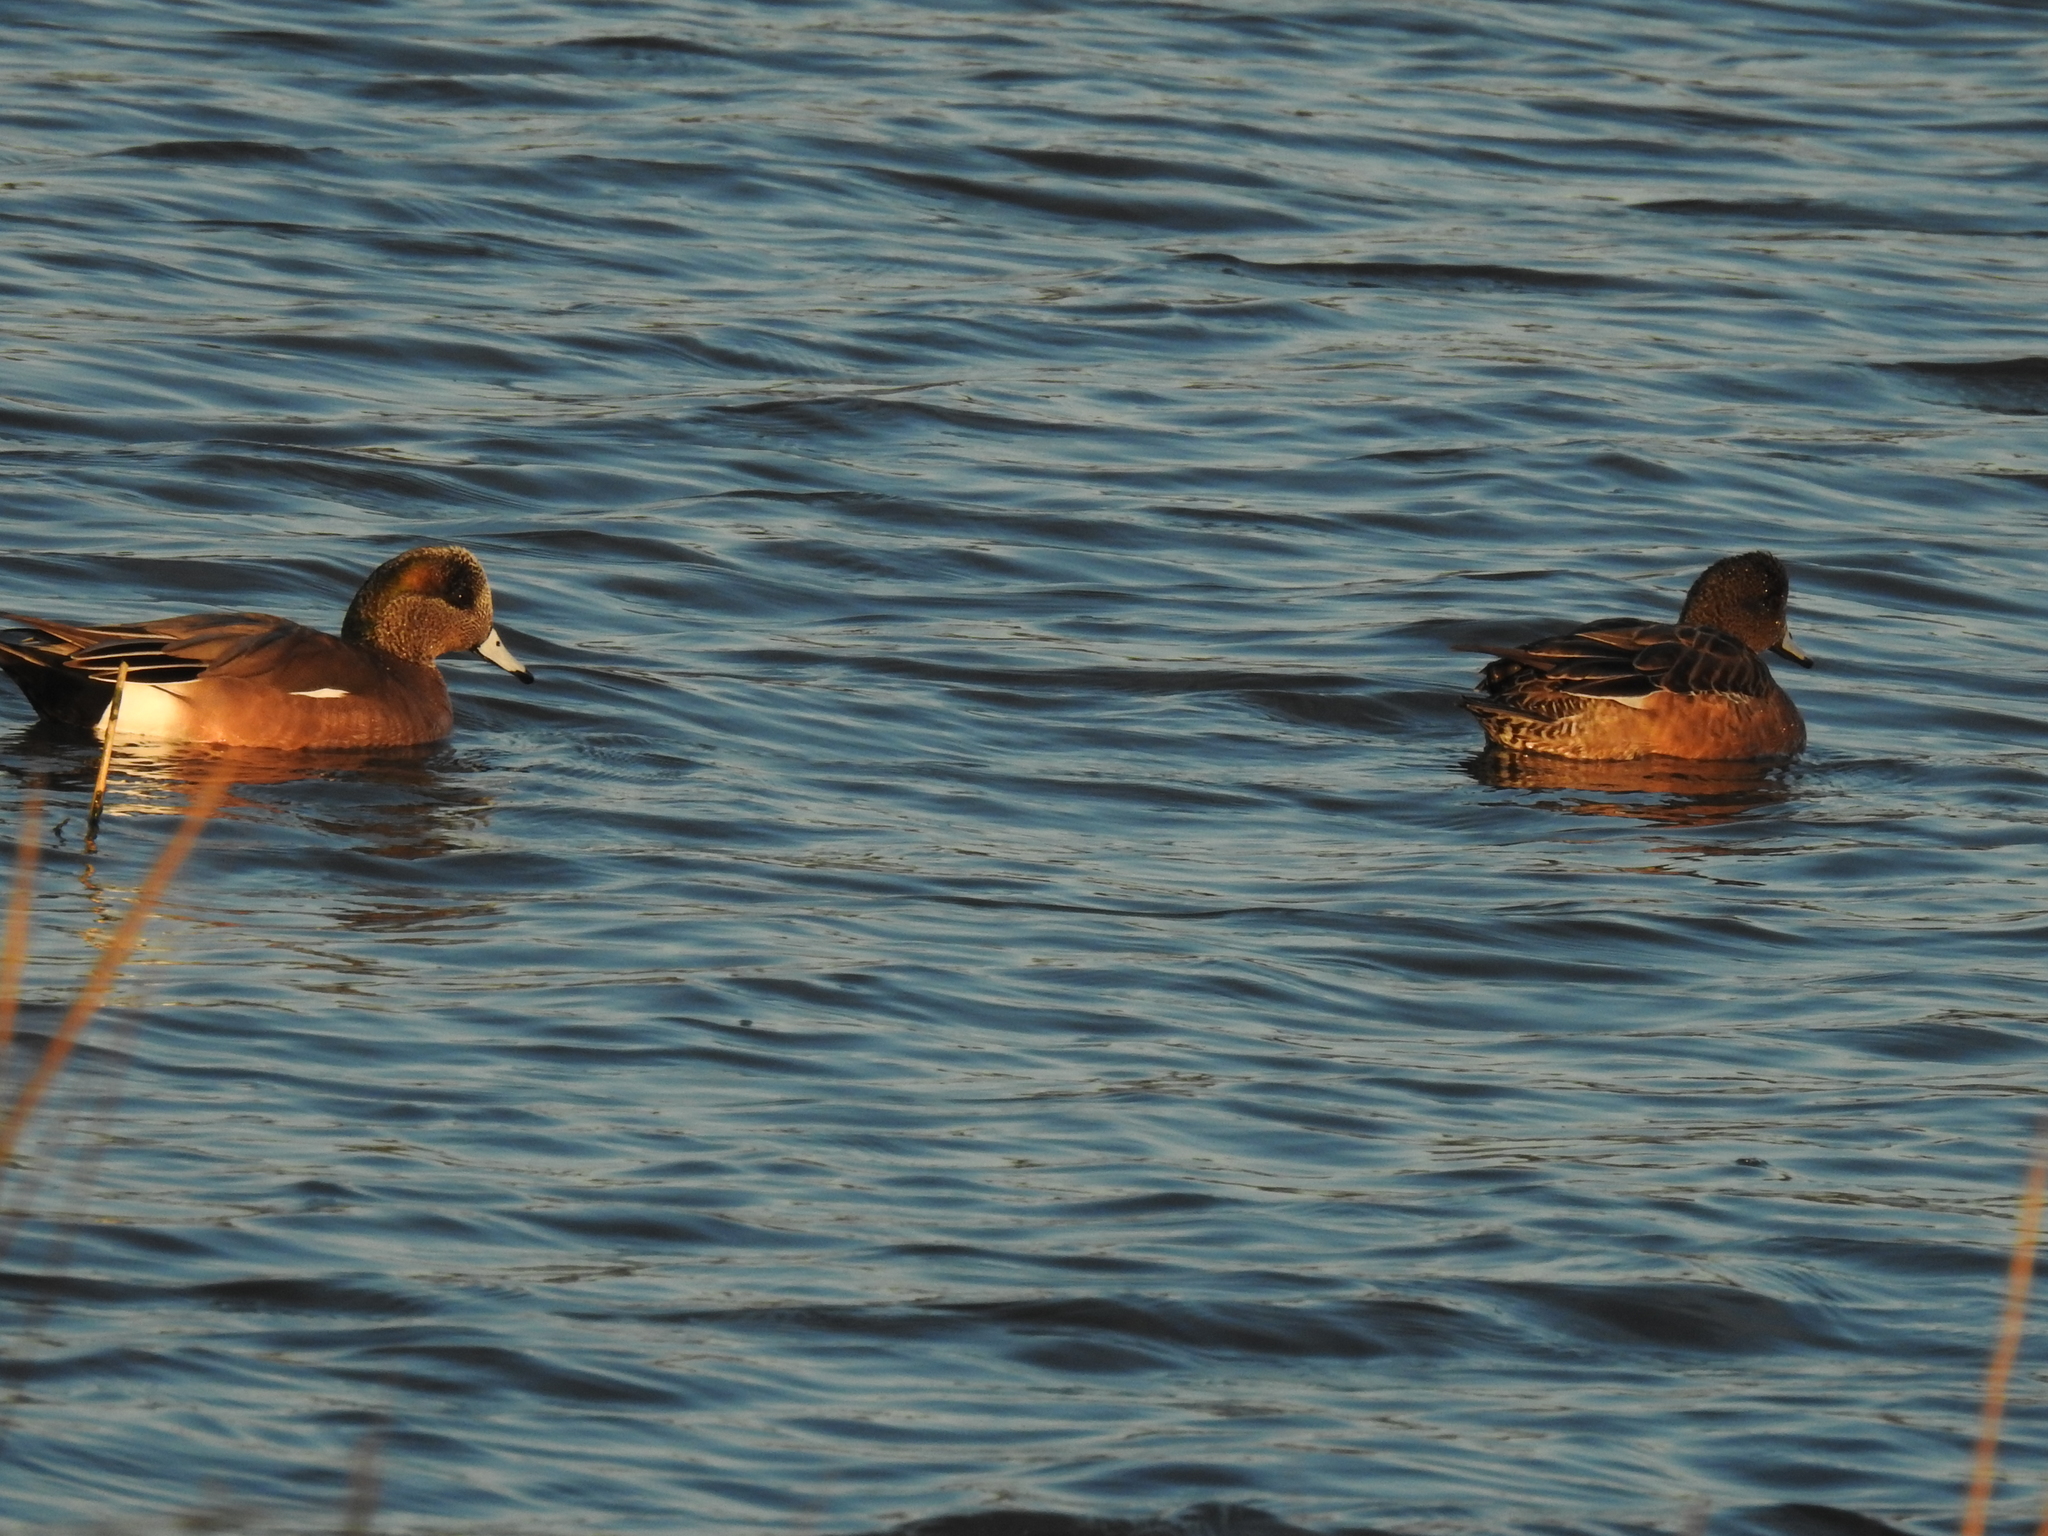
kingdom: Animalia
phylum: Chordata
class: Aves
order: Anseriformes
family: Anatidae
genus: Mareca
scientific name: Mareca americana
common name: American wigeon
